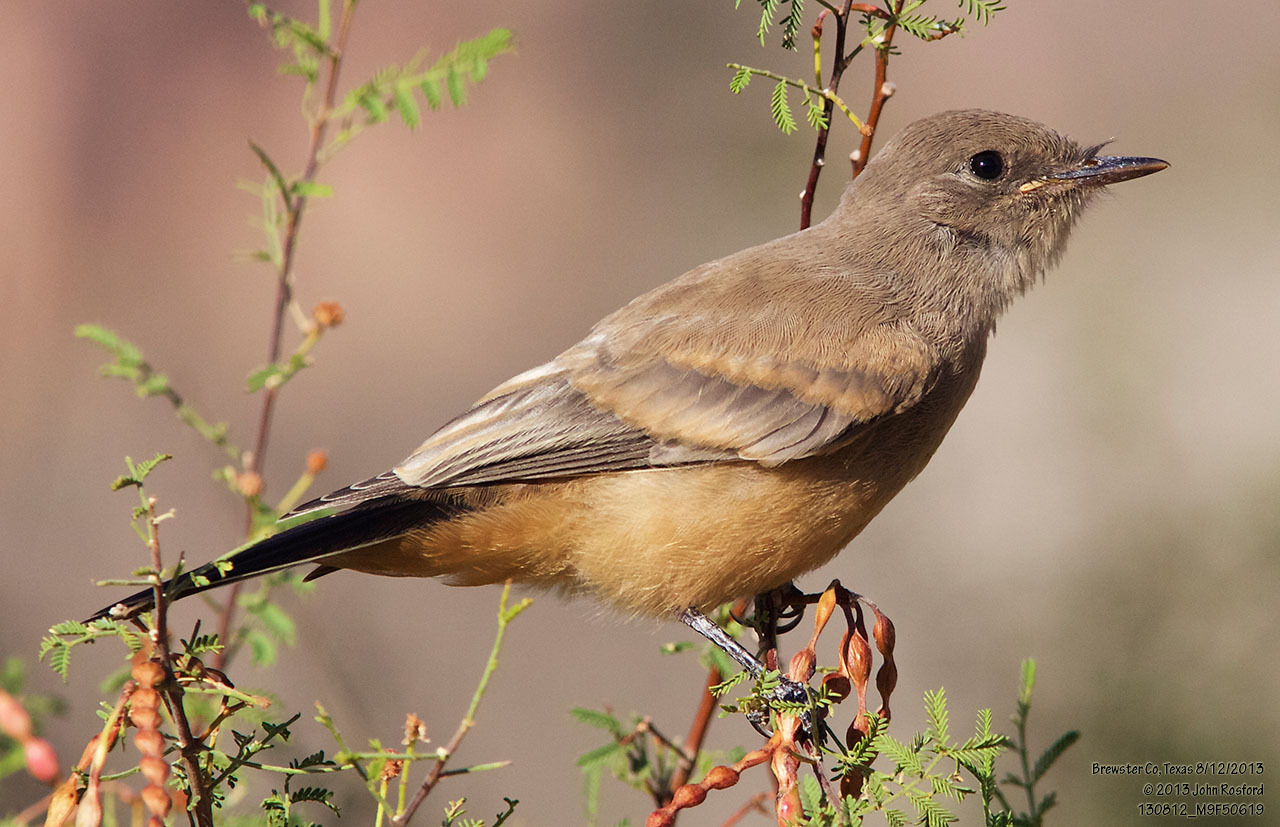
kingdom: Animalia
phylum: Chordata
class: Aves
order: Passeriformes
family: Tyrannidae
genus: Sayornis
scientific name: Sayornis saya
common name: Say's phoebe
